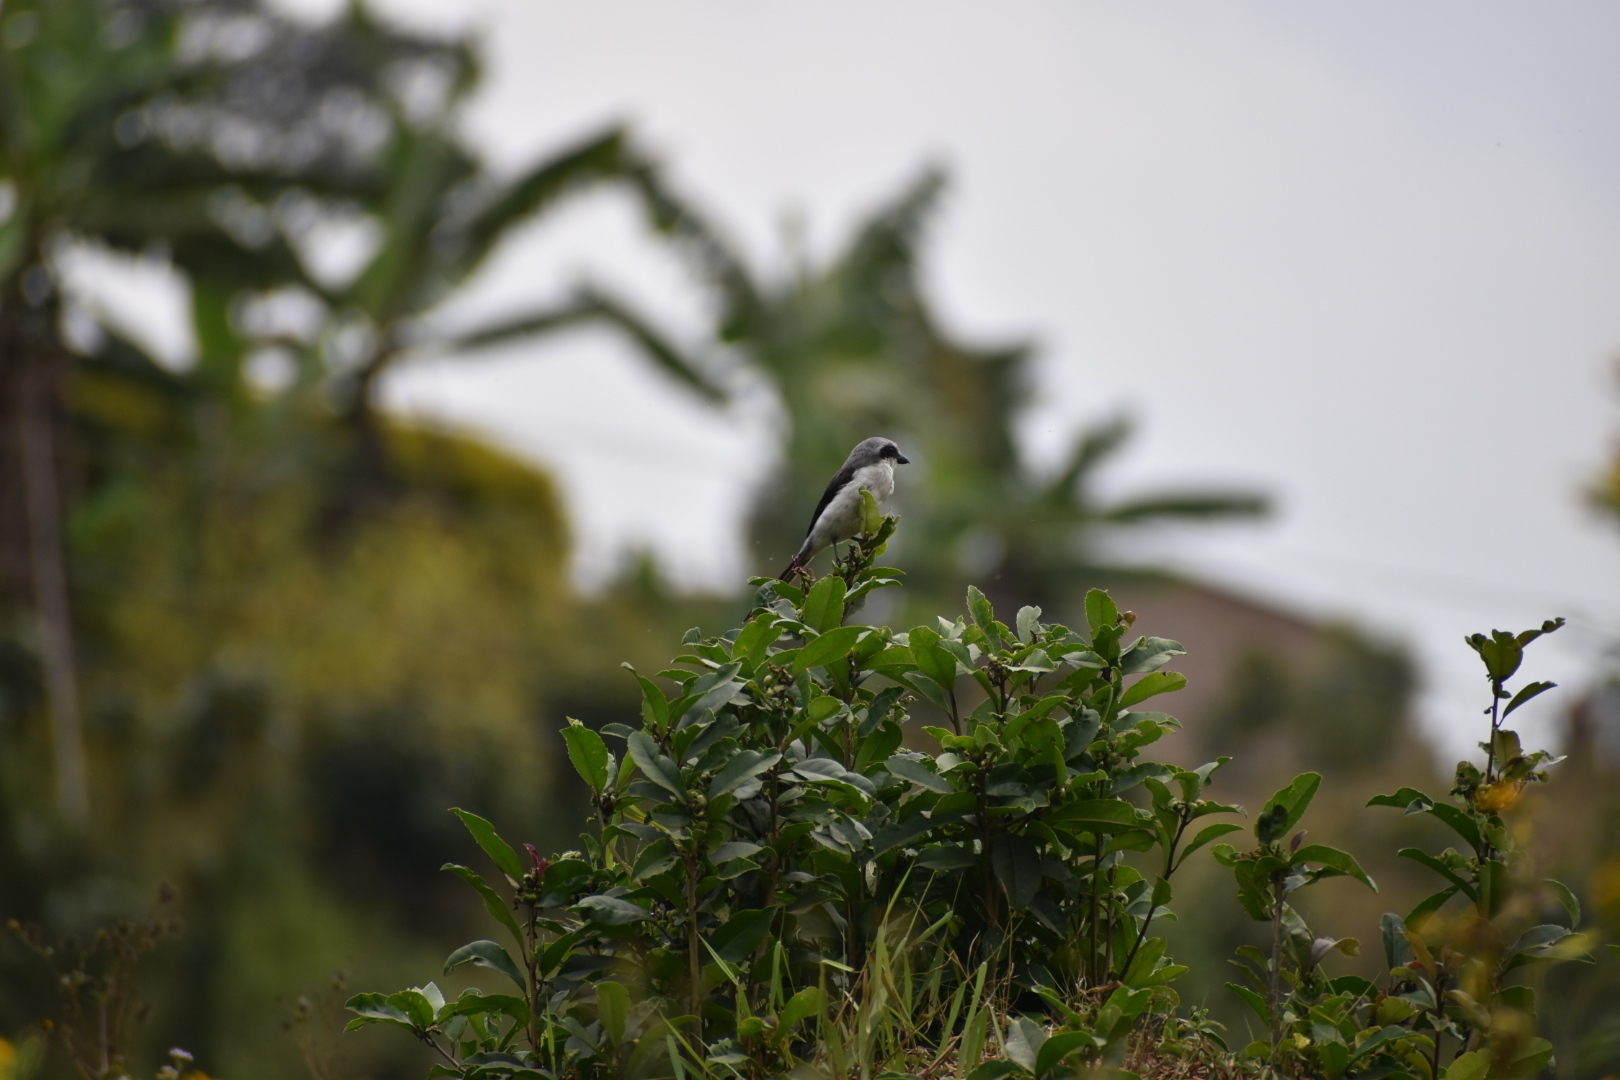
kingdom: Animalia
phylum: Chordata
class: Aves
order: Passeriformes
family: Laniidae
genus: Lanius
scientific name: Lanius mackinnoni
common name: Mackinnon's shrike
